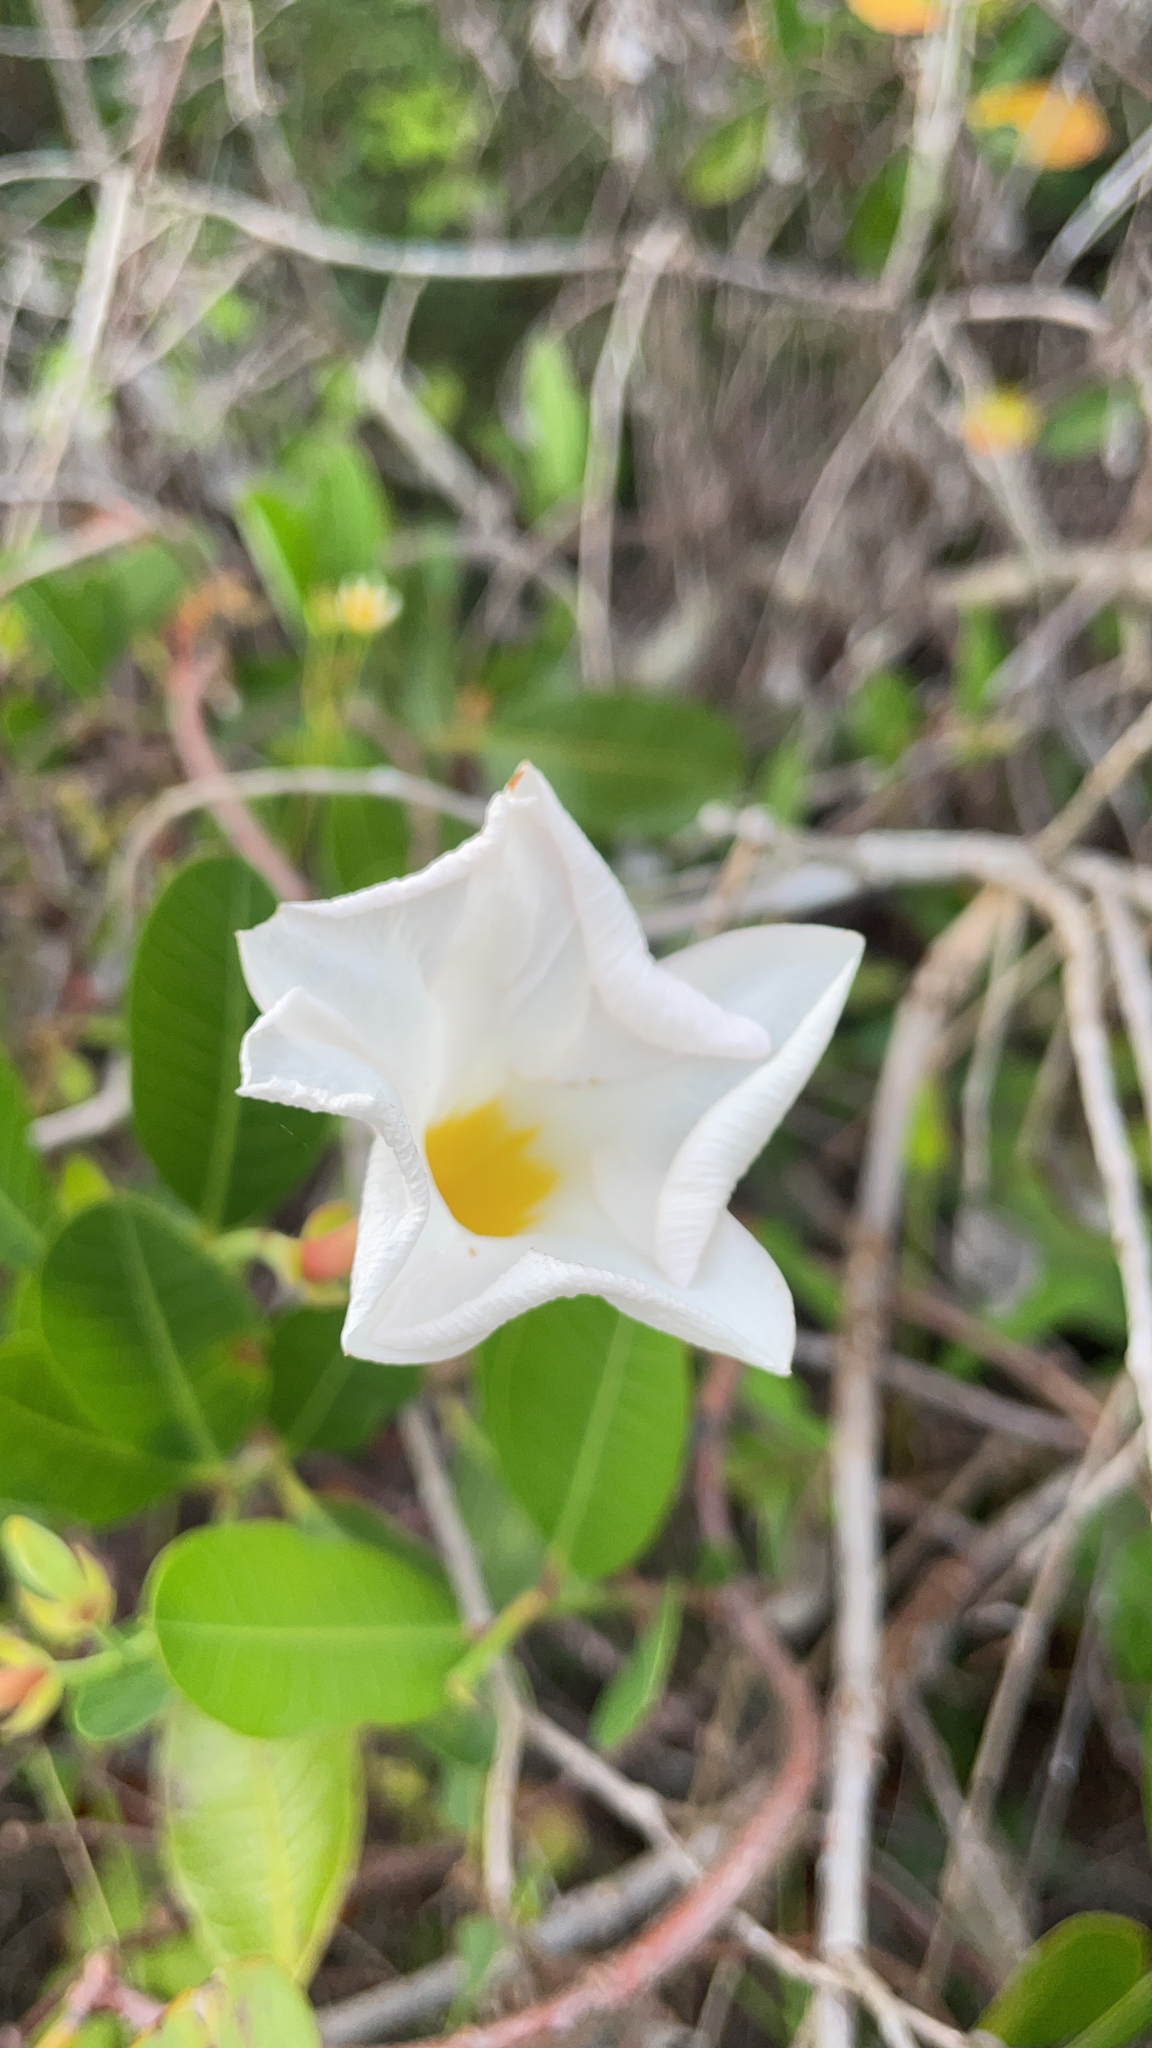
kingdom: Plantae
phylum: Tracheophyta
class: Magnoliopsida
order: Gentianales
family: Apocynaceae
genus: Rhabdadenia
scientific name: Rhabdadenia biflora
